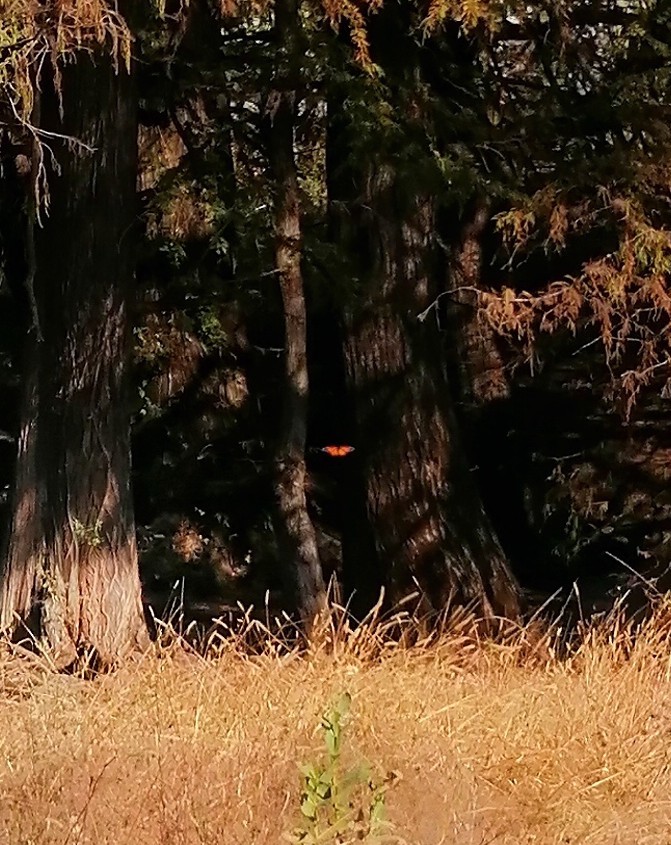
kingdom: Animalia
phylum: Arthropoda
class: Insecta
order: Lepidoptera
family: Nymphalidae
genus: Danaus
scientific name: Danaus plexippus
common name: Monarch
